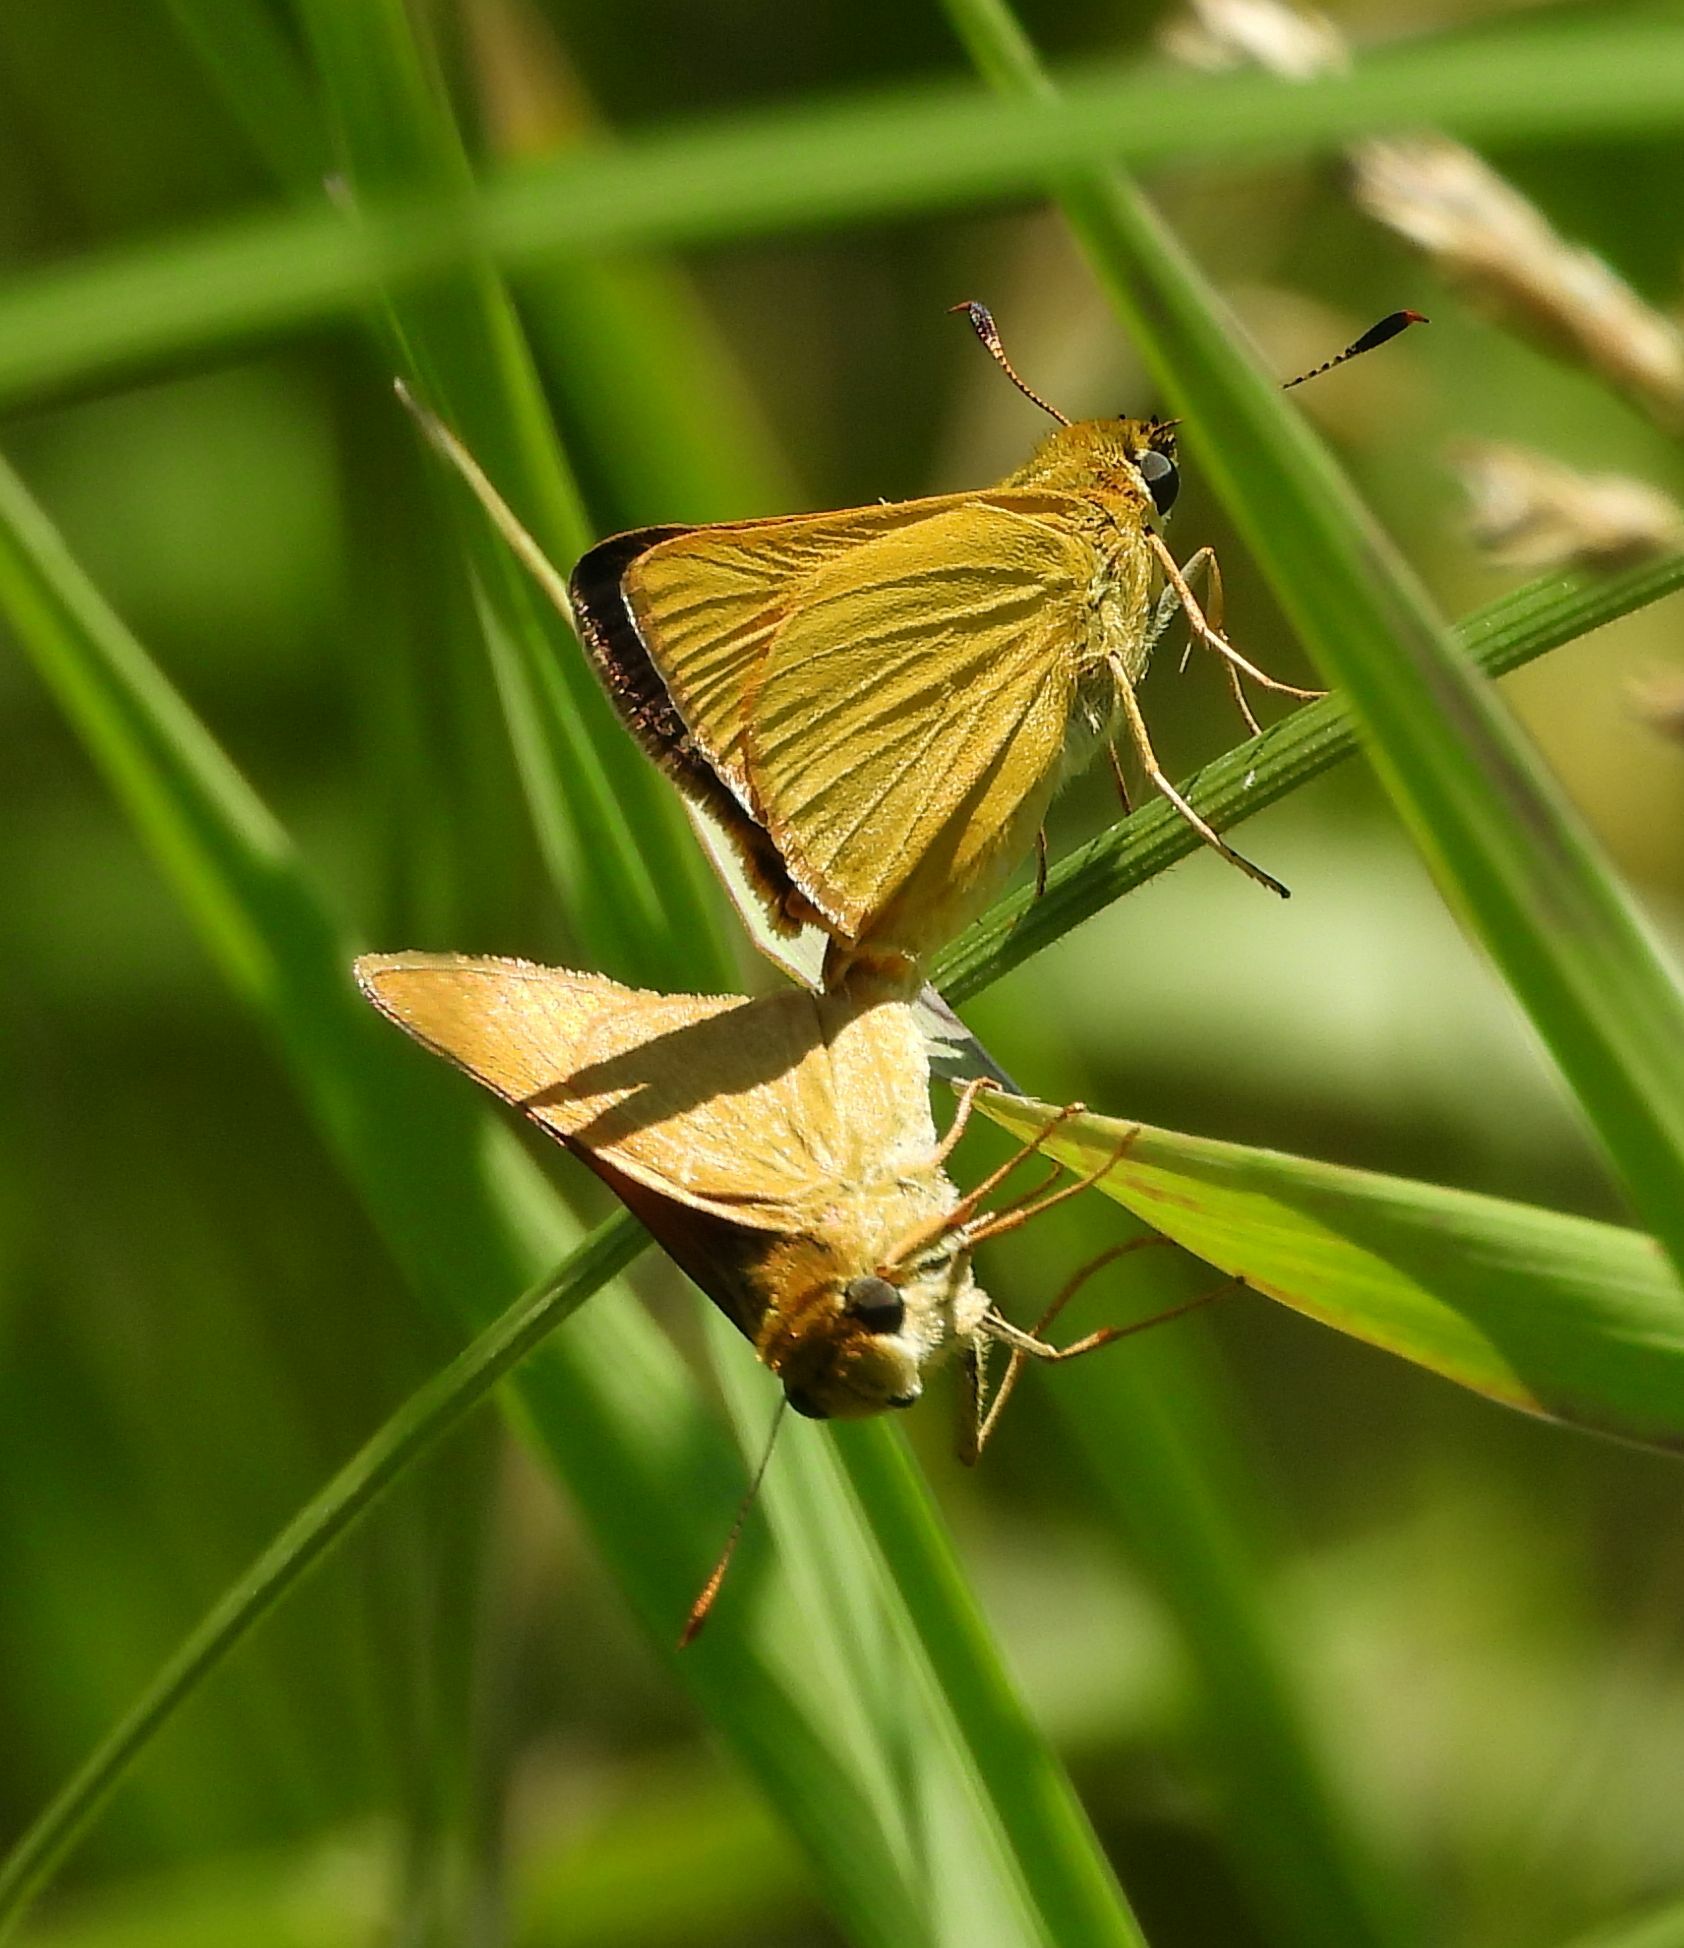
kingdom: Animalia
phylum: Arthropoda
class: Insecta
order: Lepidoptera
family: Hesperiidae
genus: Atrytone
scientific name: Atrytone delaware
